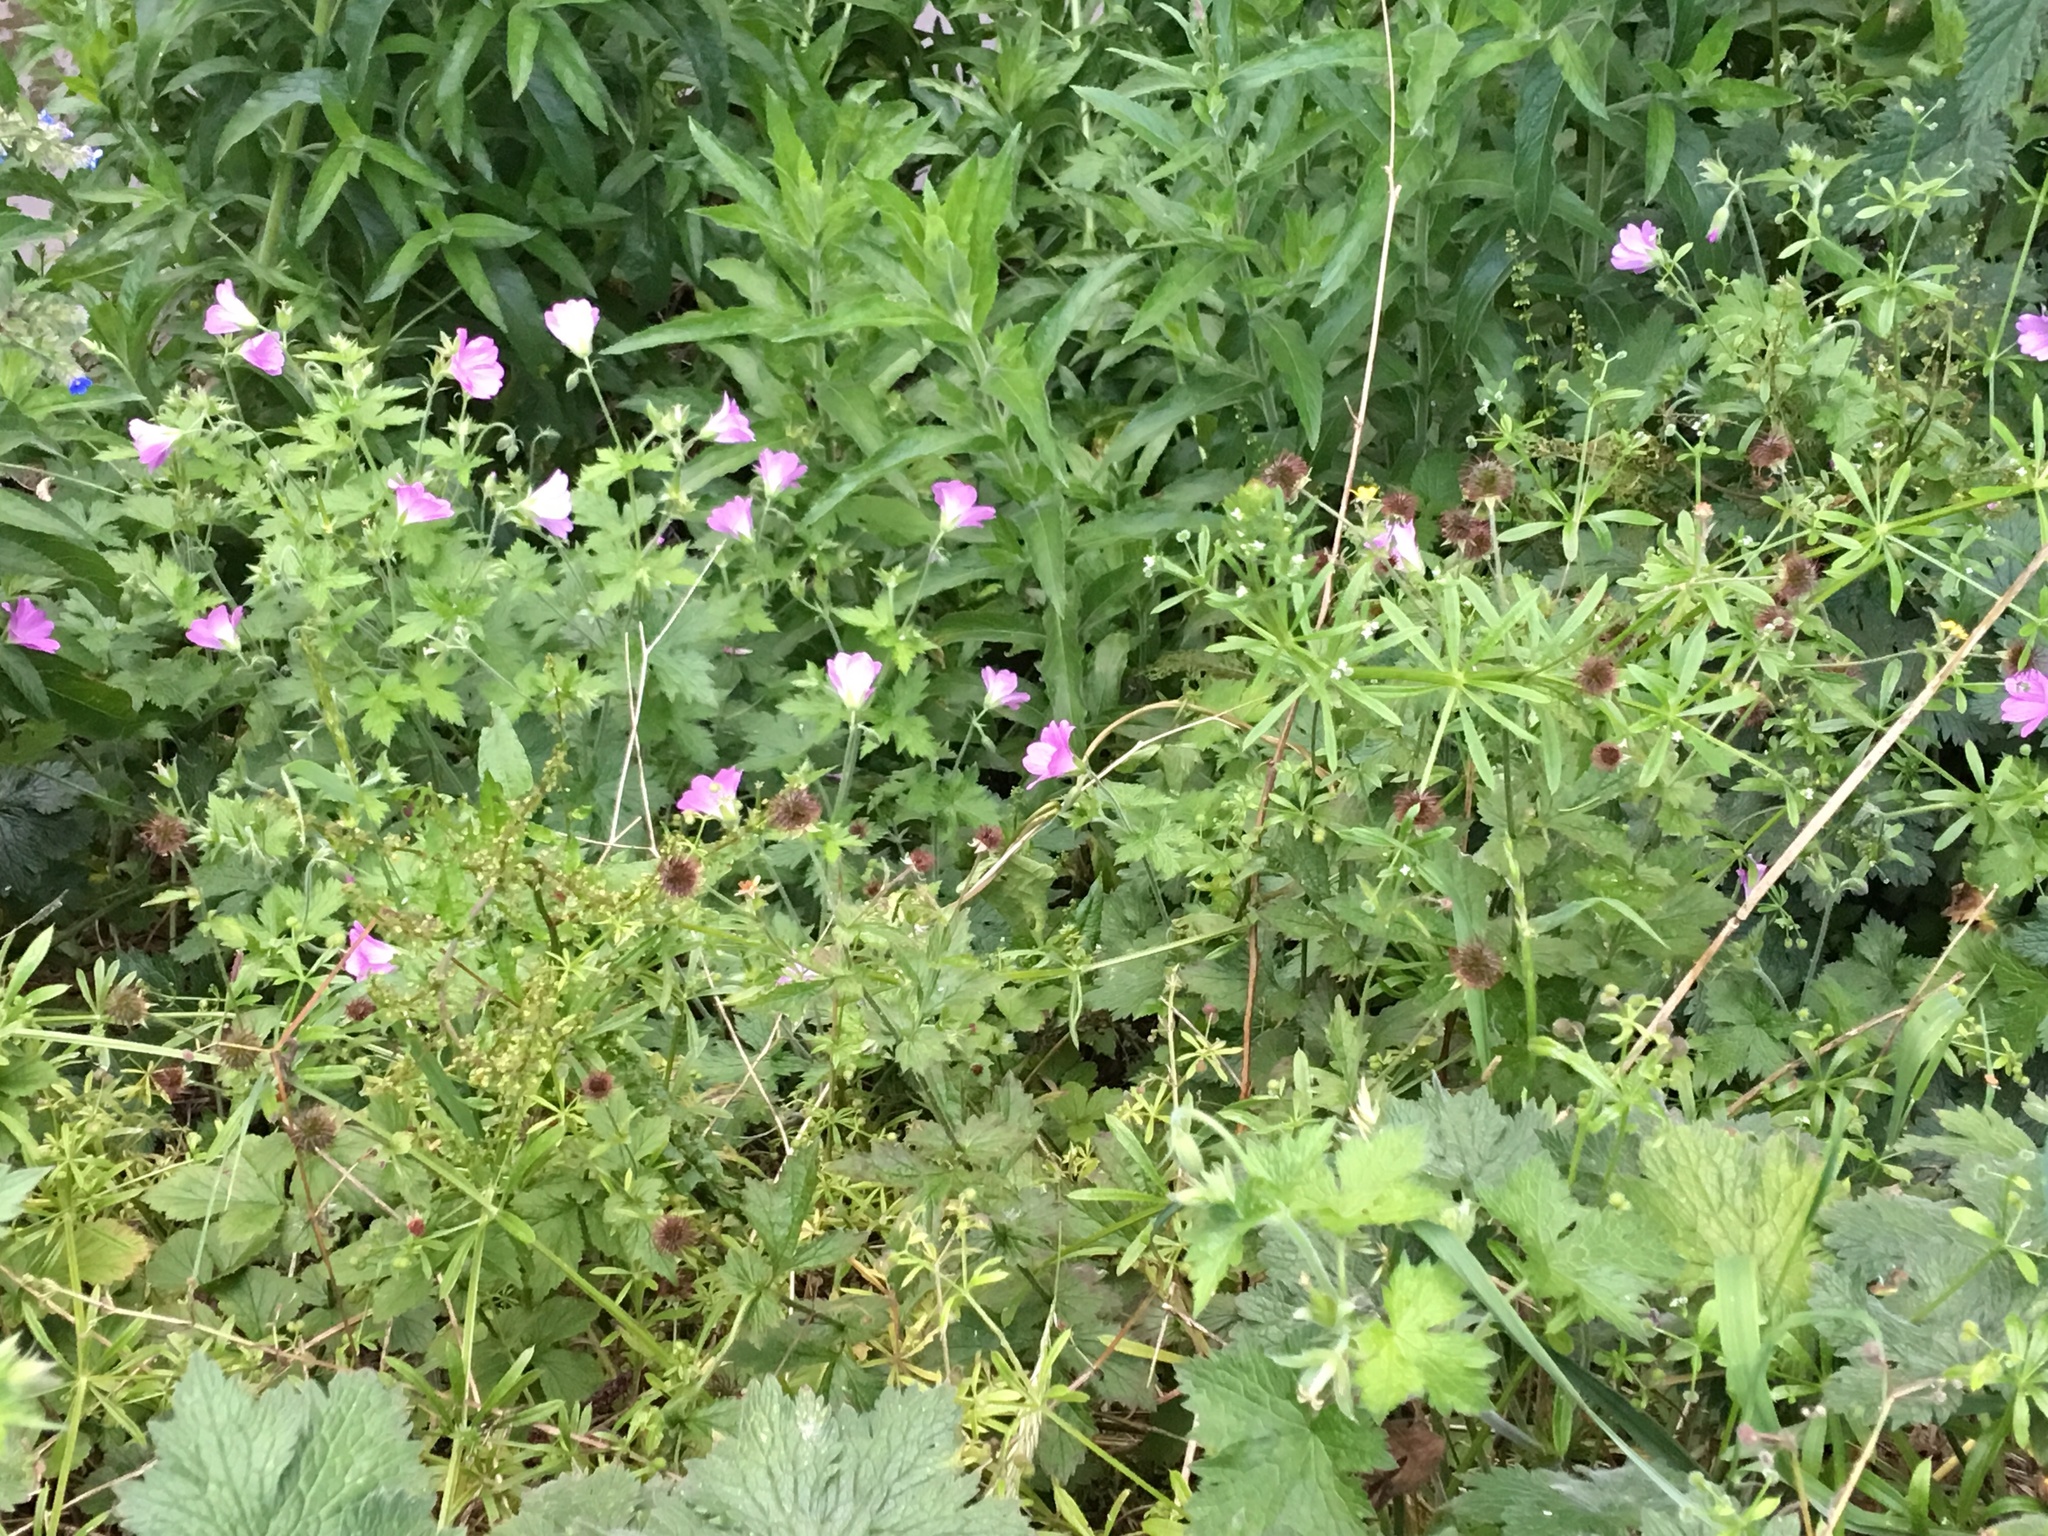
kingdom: Plantae
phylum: Tracheophyta
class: Magnoliopsida
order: Geraniales
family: Geraniaceae
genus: Geranium
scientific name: Geranium oxonianum
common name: Druce's crane's-bill
